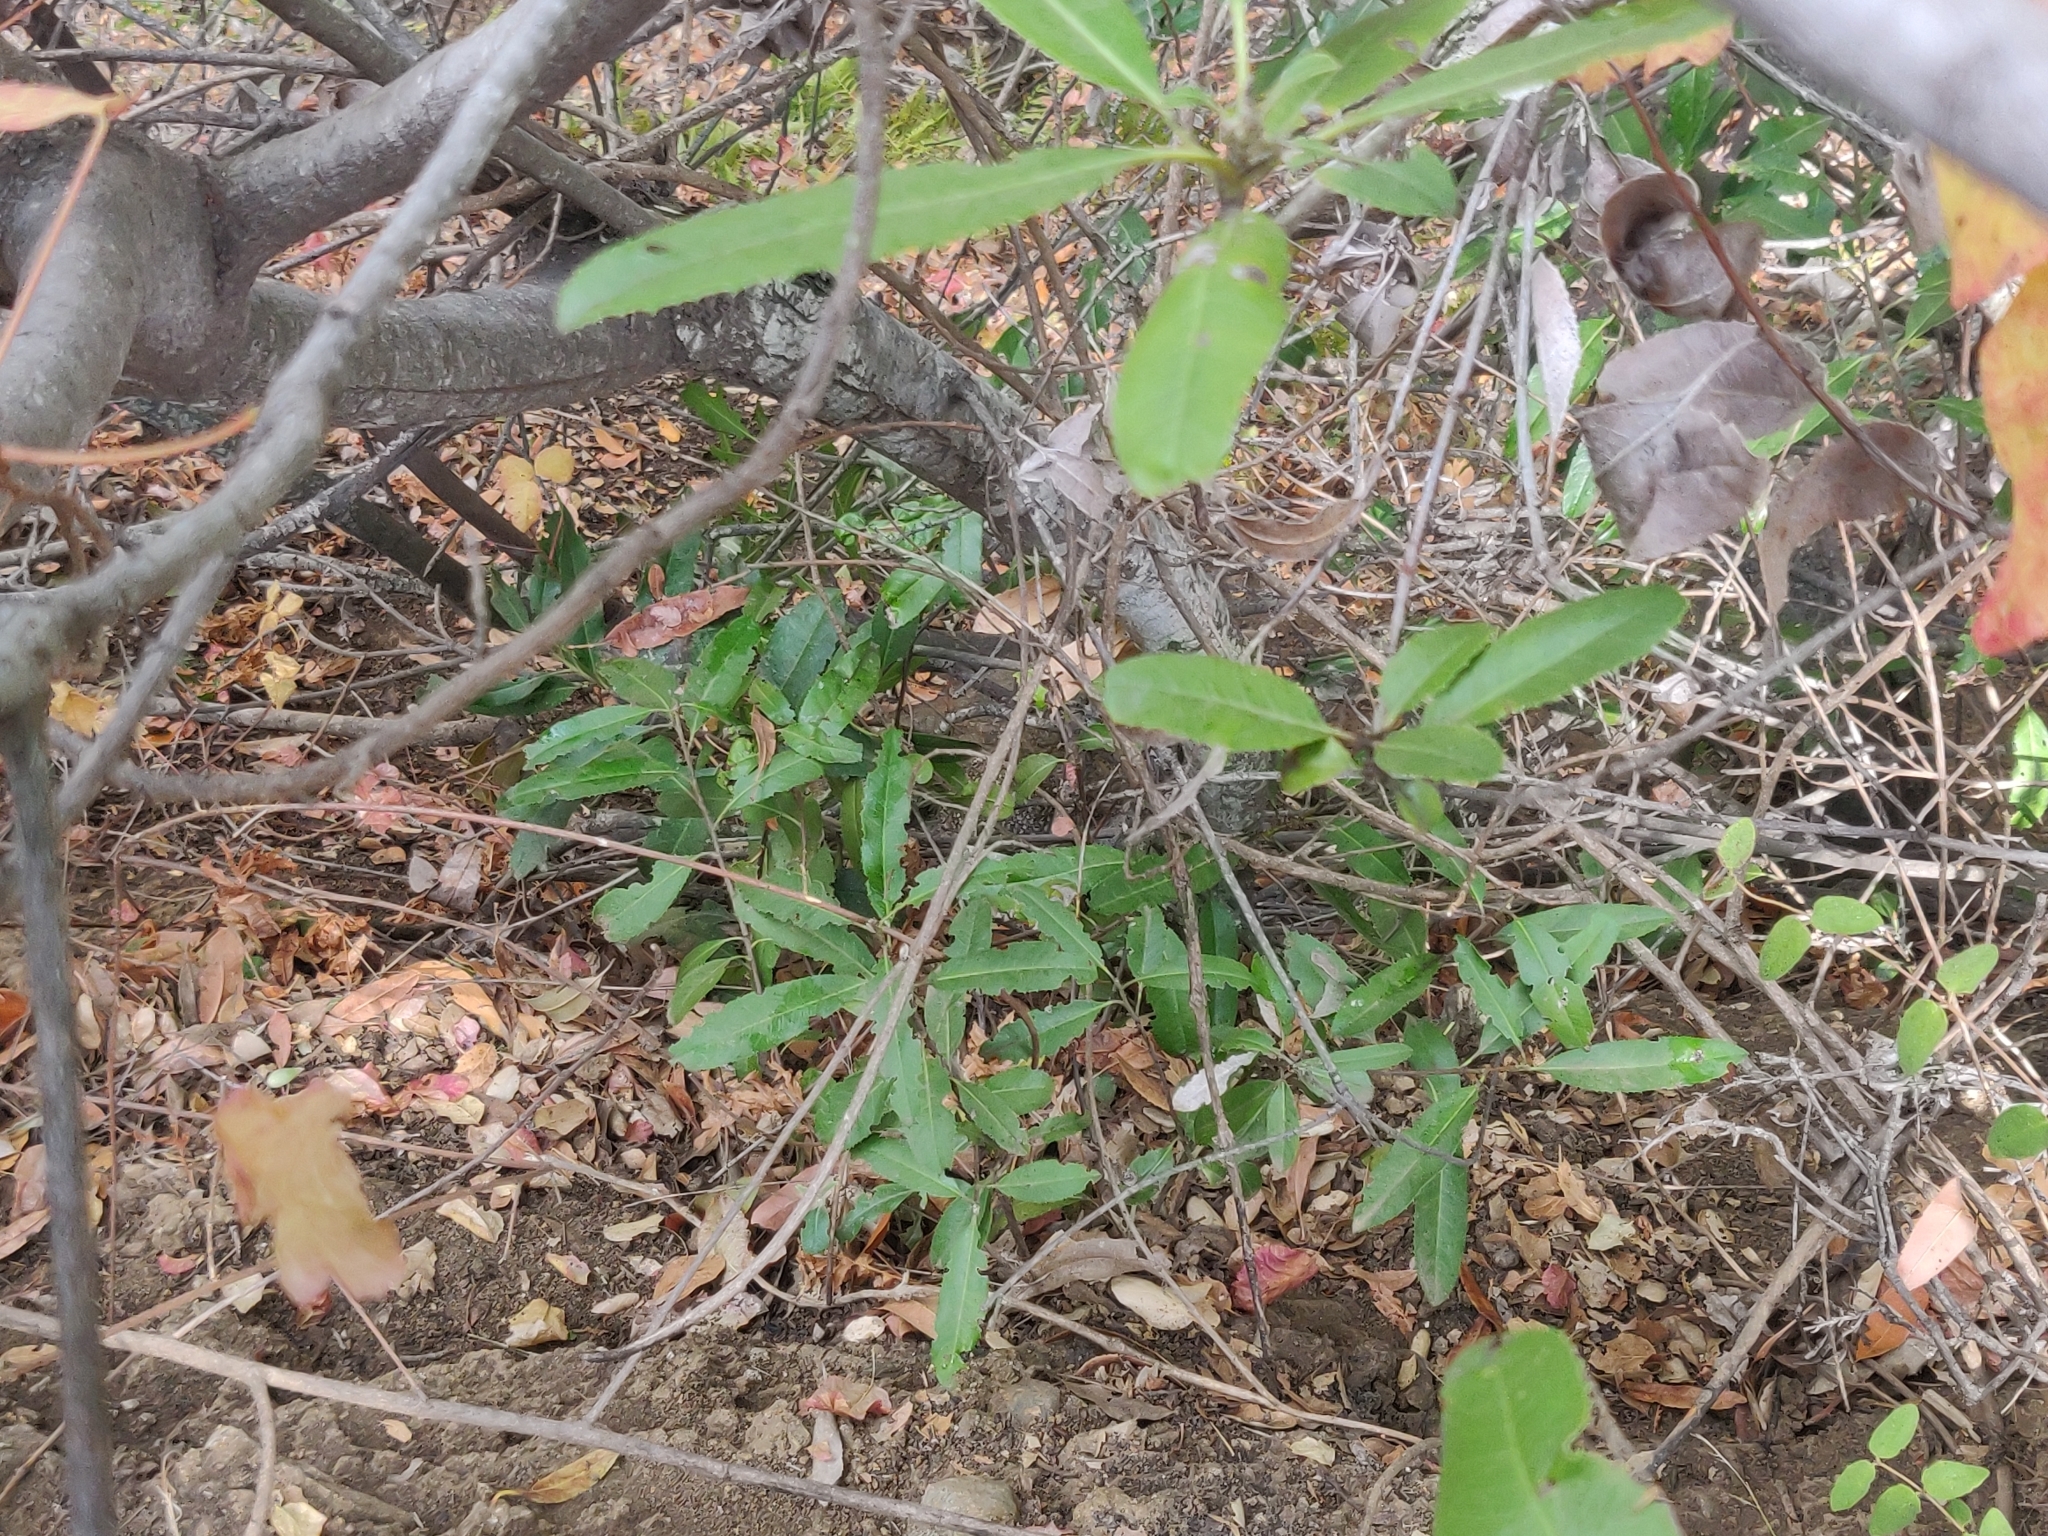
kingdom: Animalia
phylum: Chordata
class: Mammalia
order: Rodentia
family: Sciuridae
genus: Otospermophilus
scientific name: Otospermophilus beecheyi
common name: California ground squirrel
